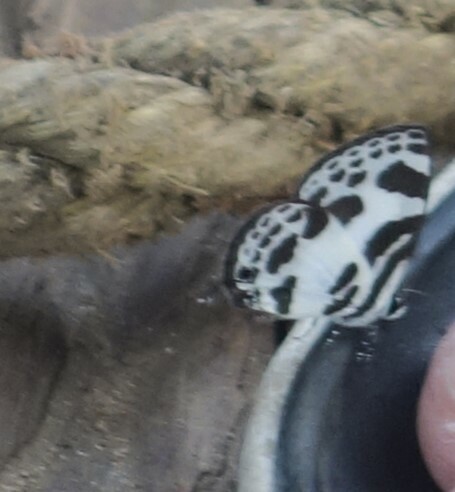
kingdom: Animalia
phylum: Arthropoda
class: Insecta
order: Lepidoptera
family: Lycaenidae
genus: Discolampa
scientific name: Discolampa ethion
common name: Banded blue pierrot
